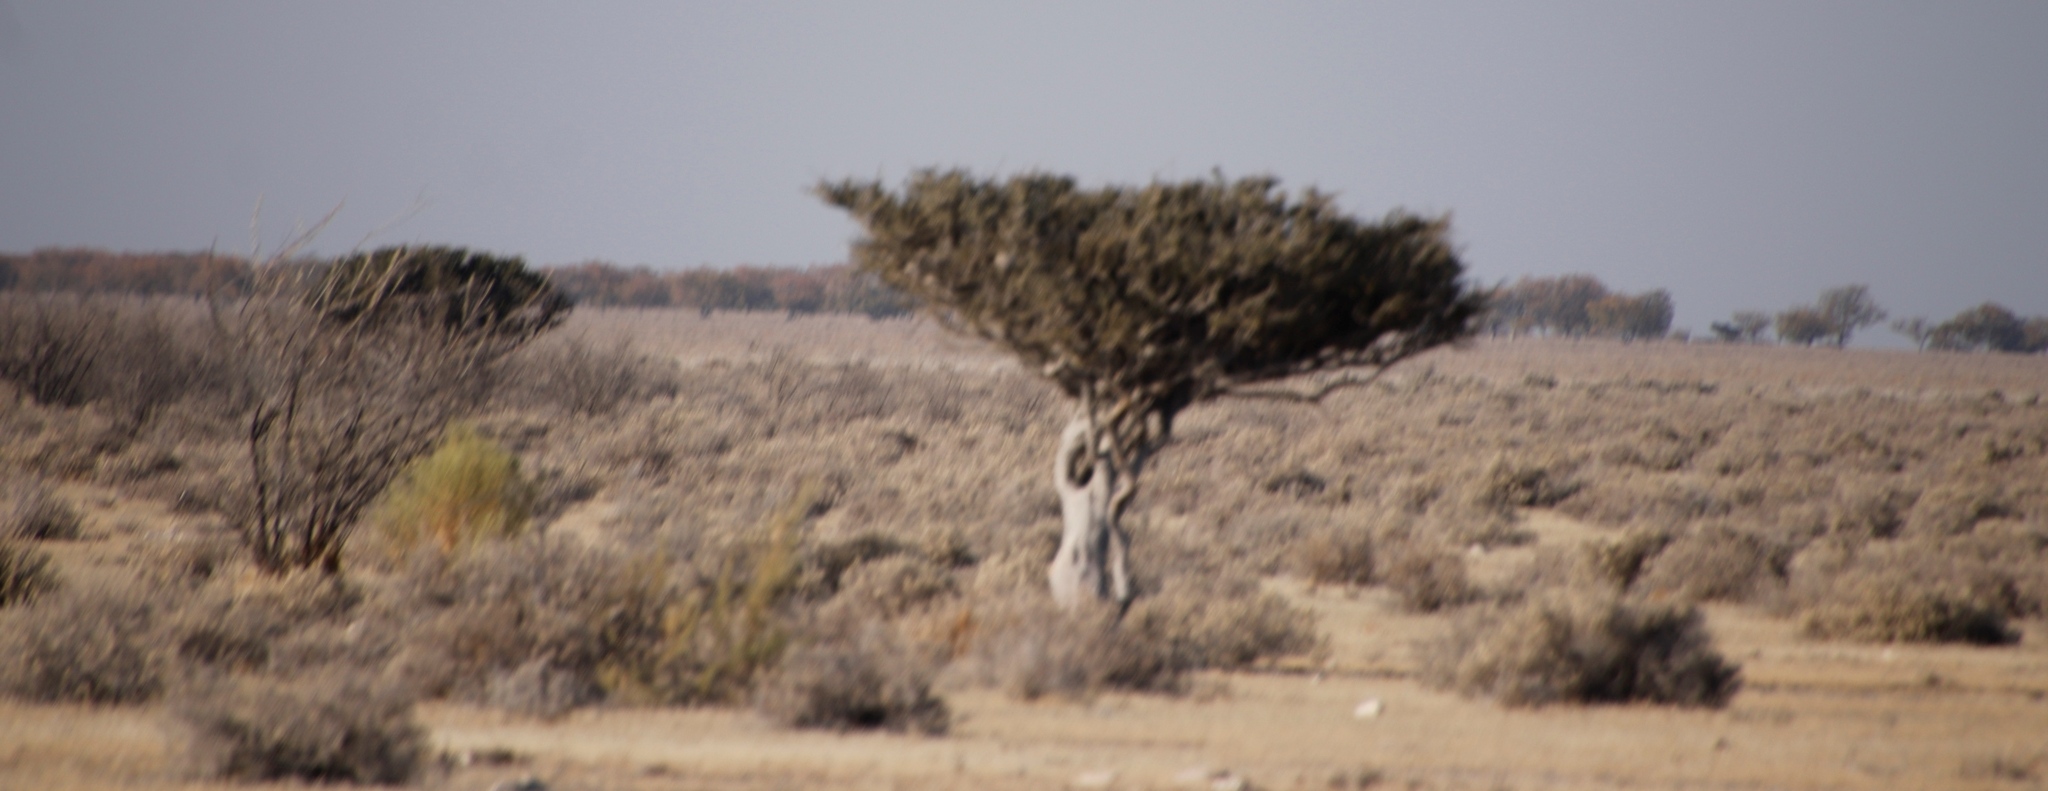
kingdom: Plantae
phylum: Tracheophyta
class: Magnoliopsida
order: Brassicales
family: Capparaceae
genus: Boscia
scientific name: Boscia albitrunca
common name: Caper bush
